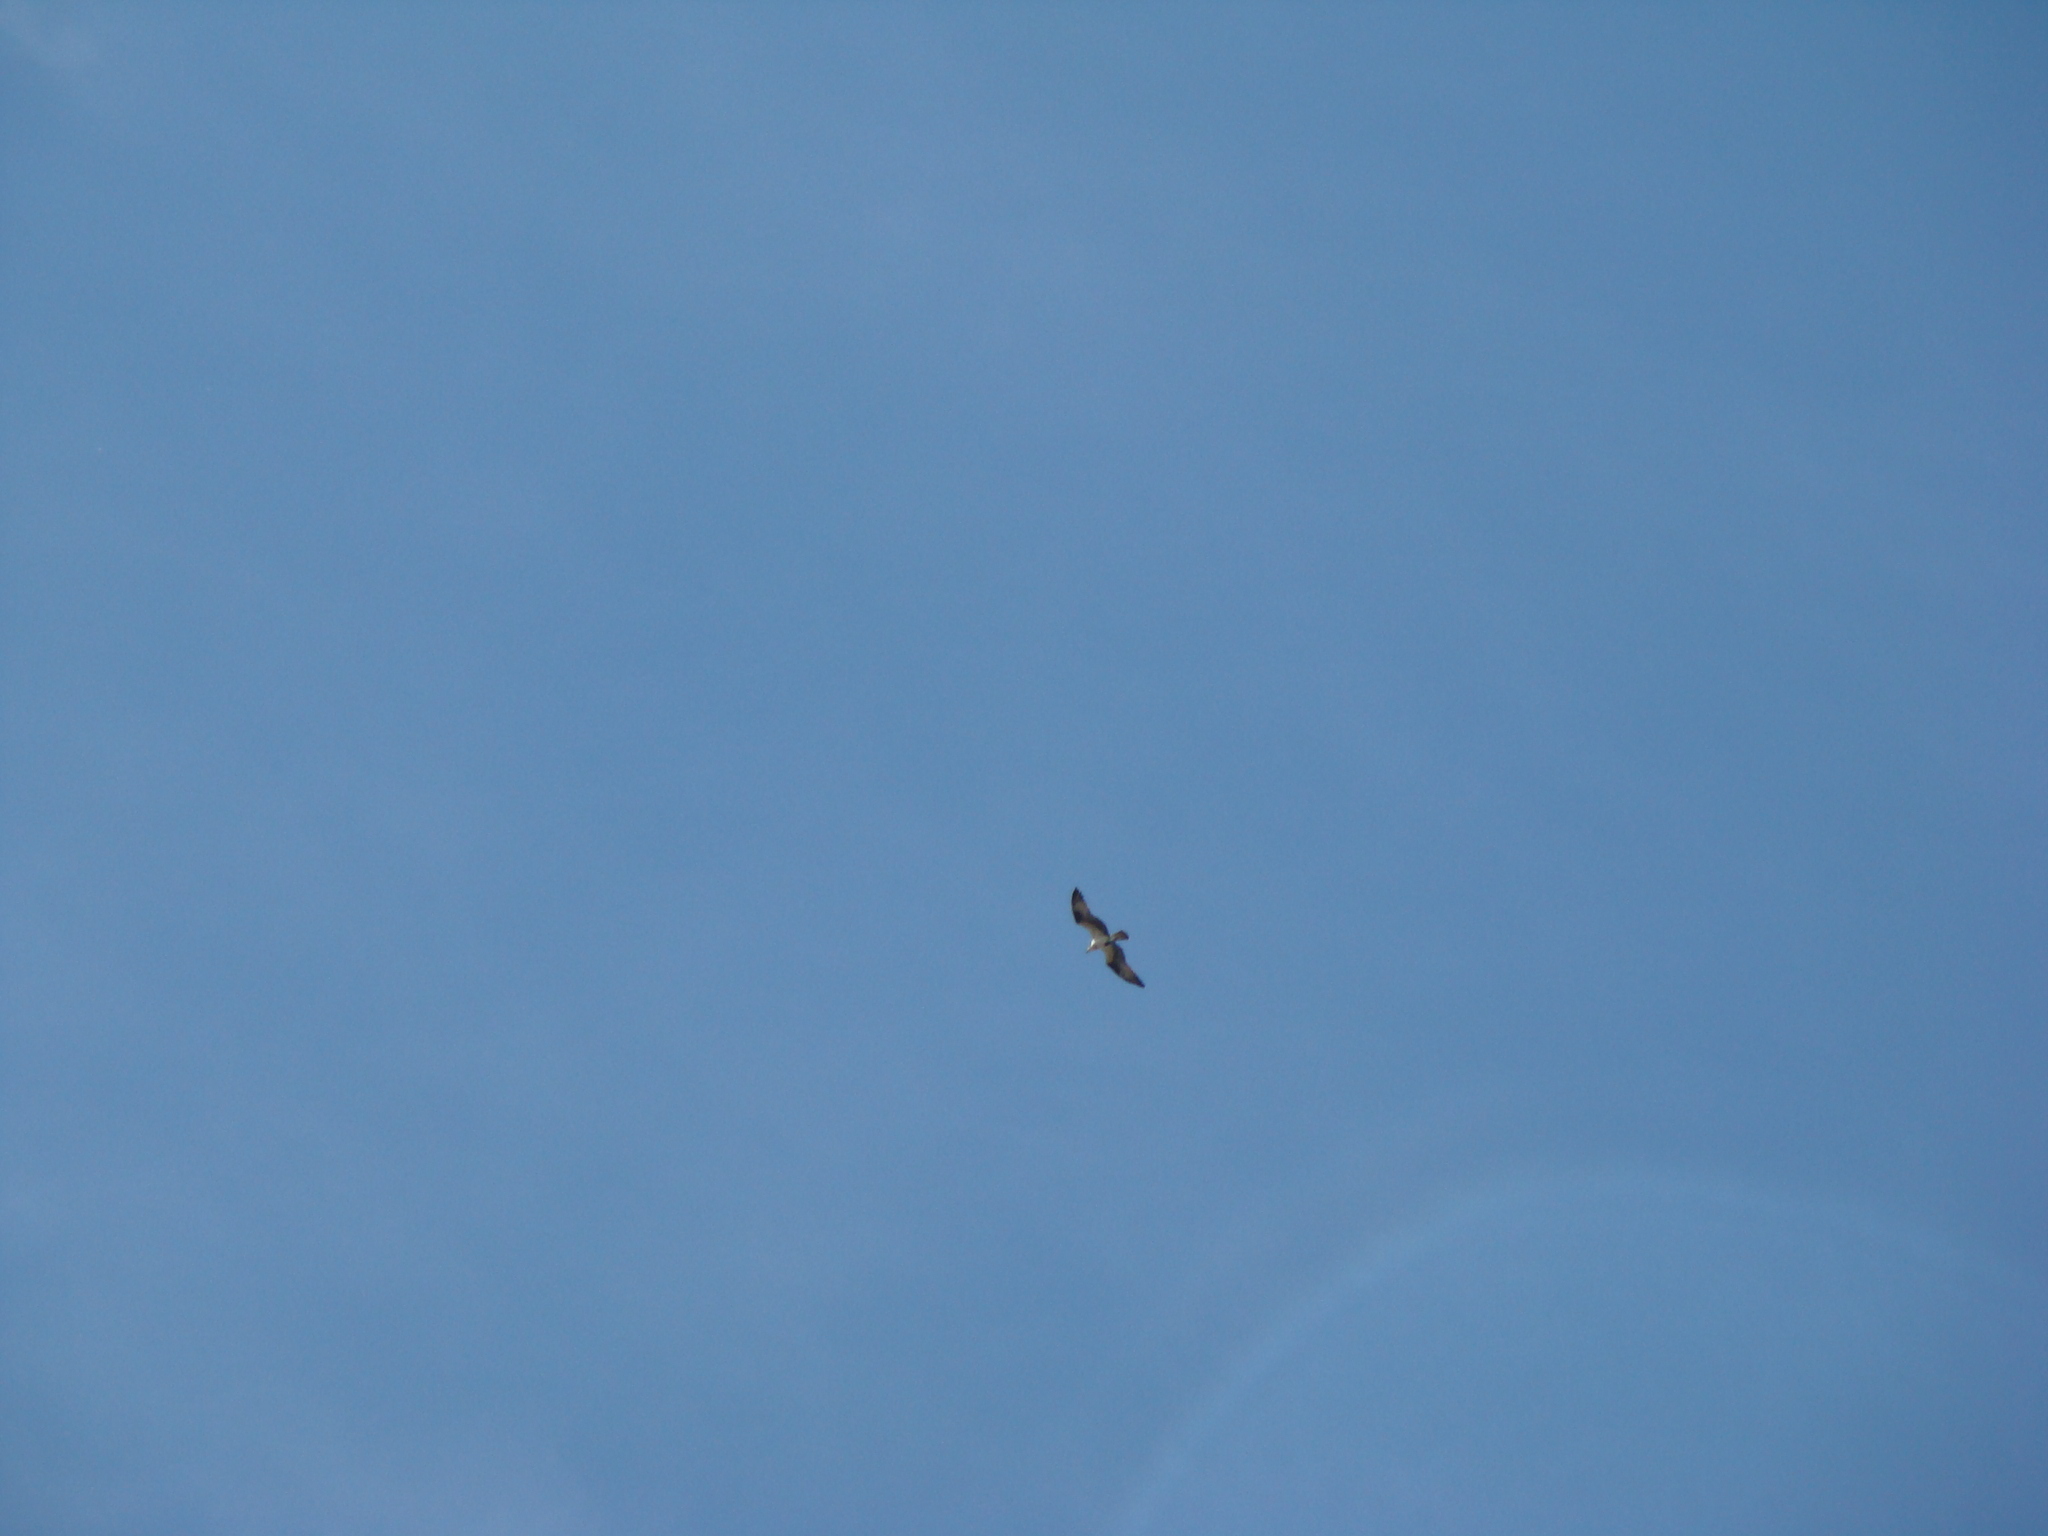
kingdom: Animalia
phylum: Chordata
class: Aves
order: Accipitriformes
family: Pandionidae
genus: Pandion
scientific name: Pandion haliaetus
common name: Osprey
